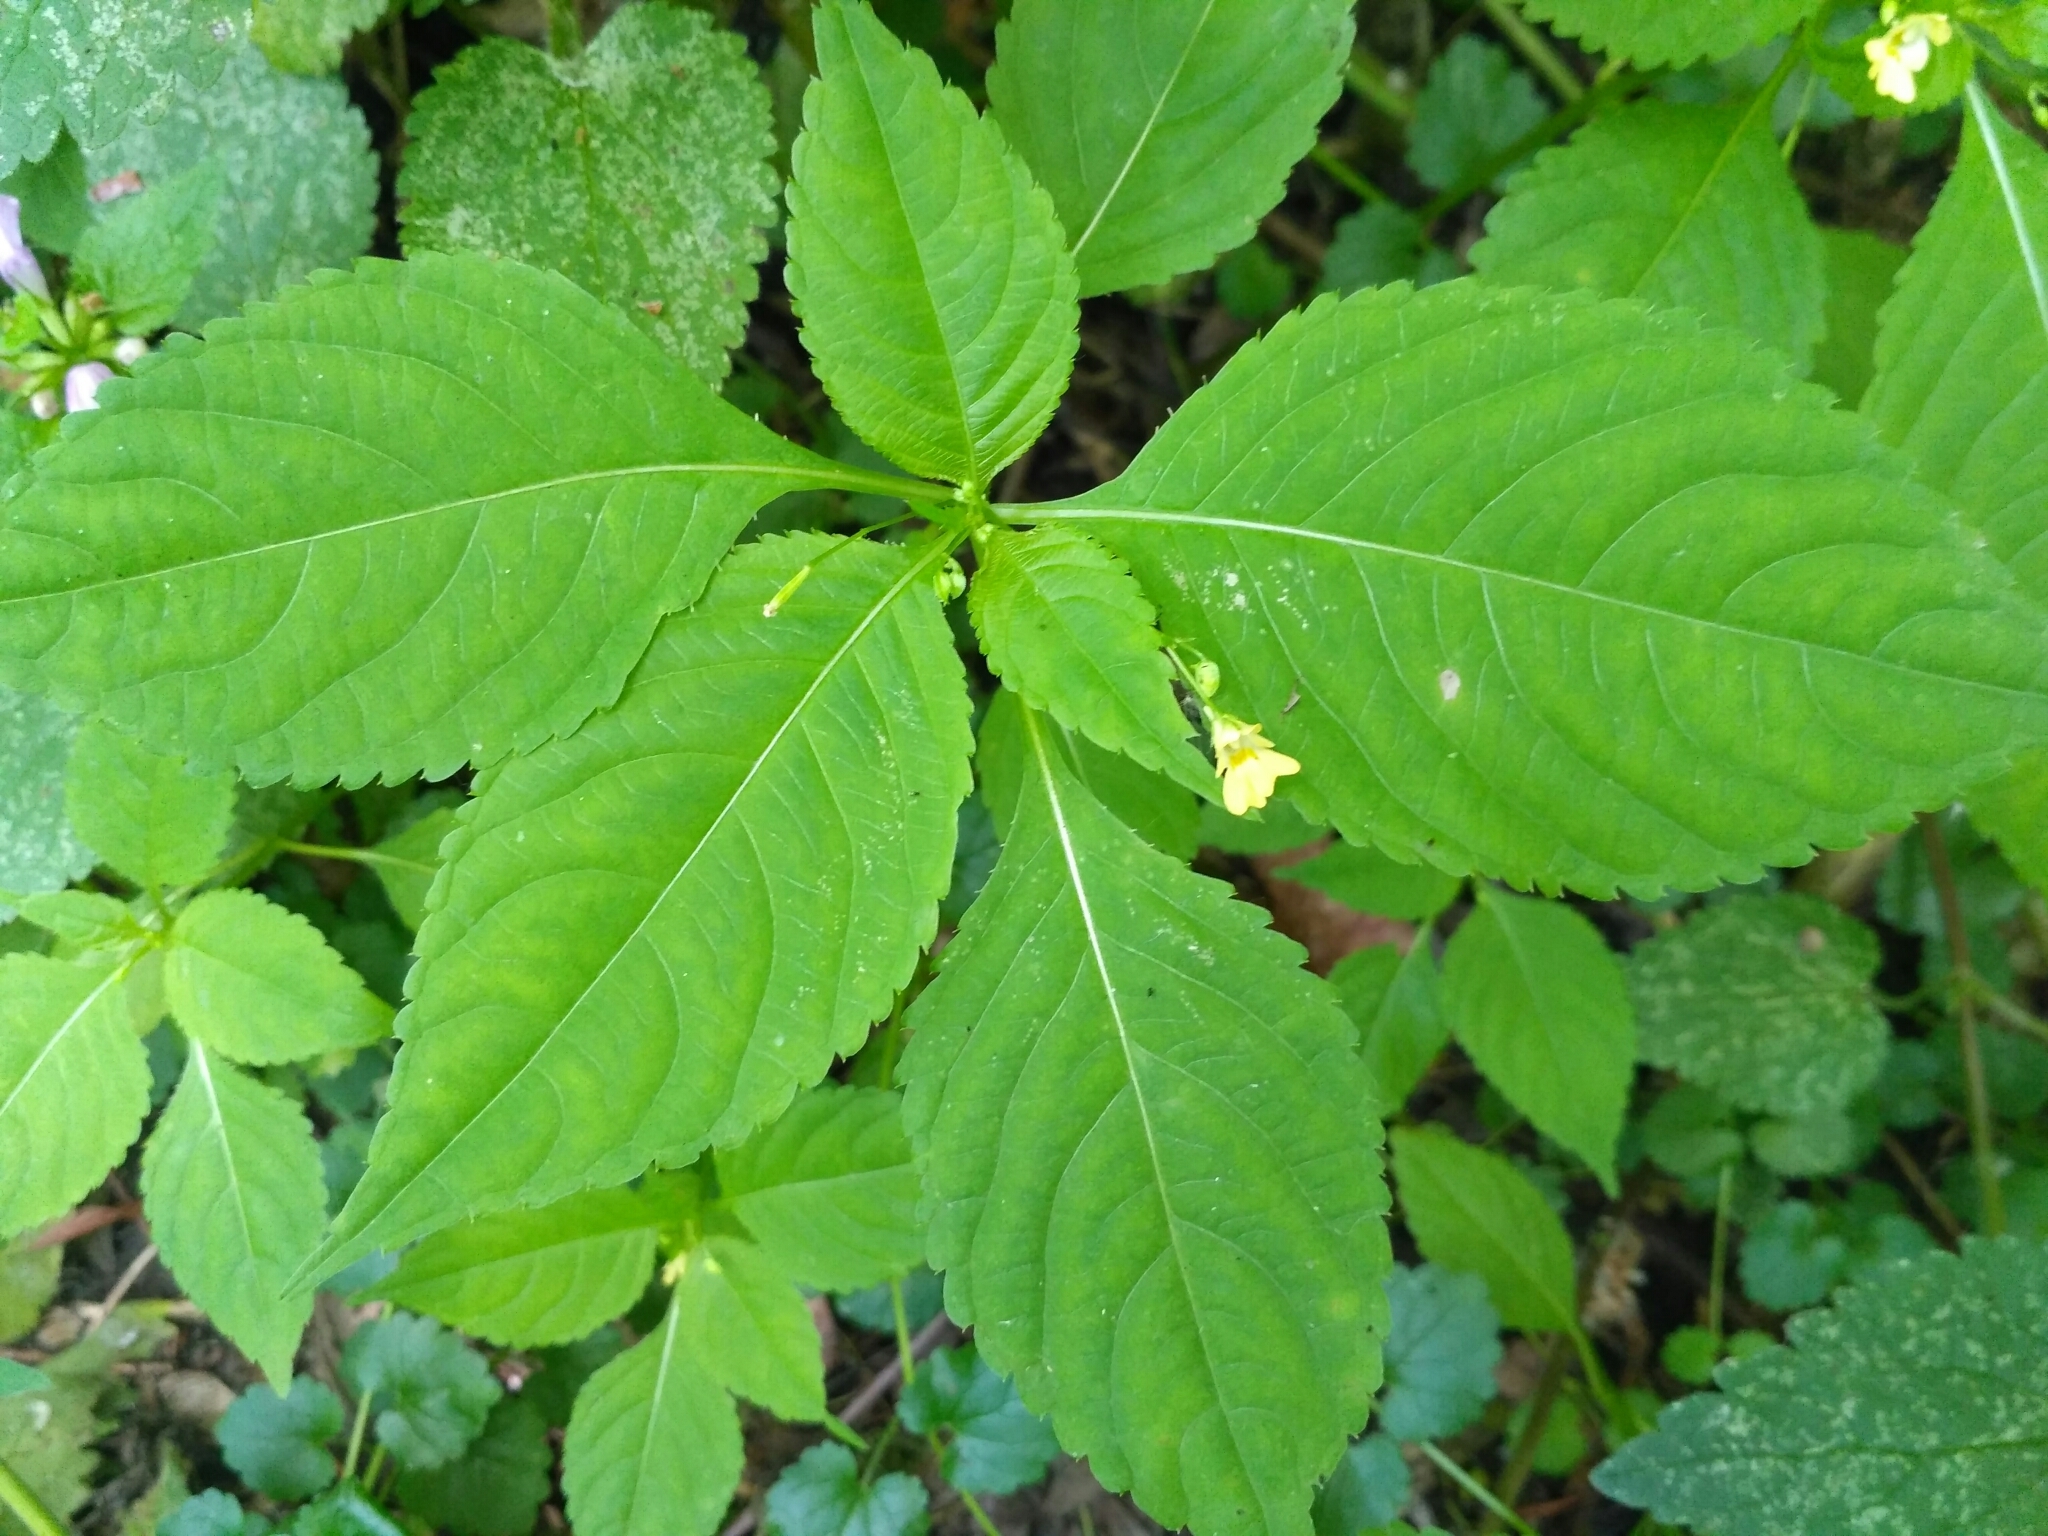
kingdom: Plantae
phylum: Tracheophyta
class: Magnoliopsida
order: Ericales
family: Balsaminaceae
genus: Impatiens
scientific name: Impatiens parviflora
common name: Small balsam
